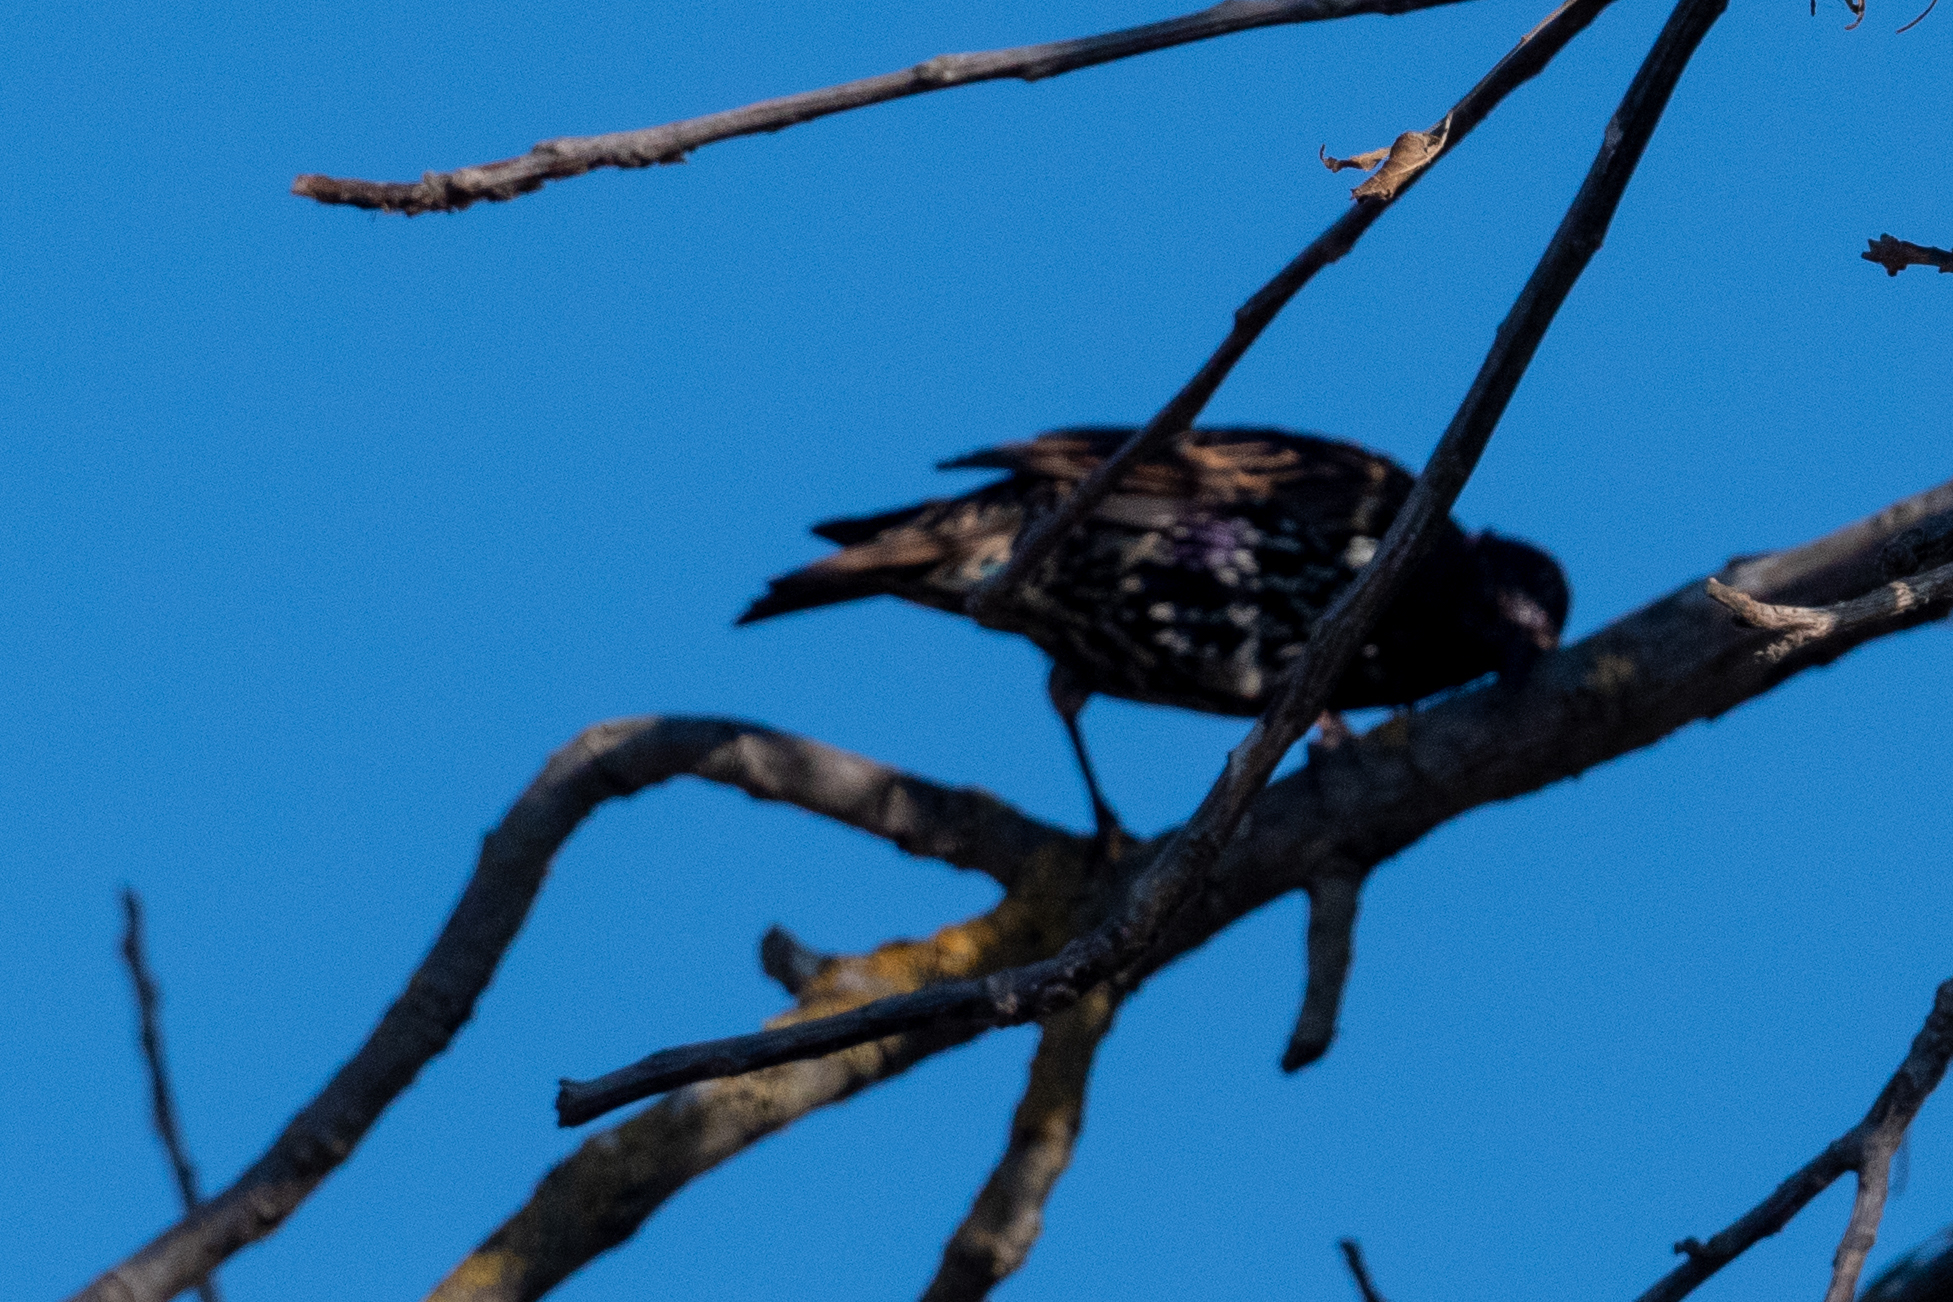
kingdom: Animalia
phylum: Chordata
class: Aves
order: Passeriformes
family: Sturnidae
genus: Sturnus
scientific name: Sturnus vulgaris
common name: Common starling
